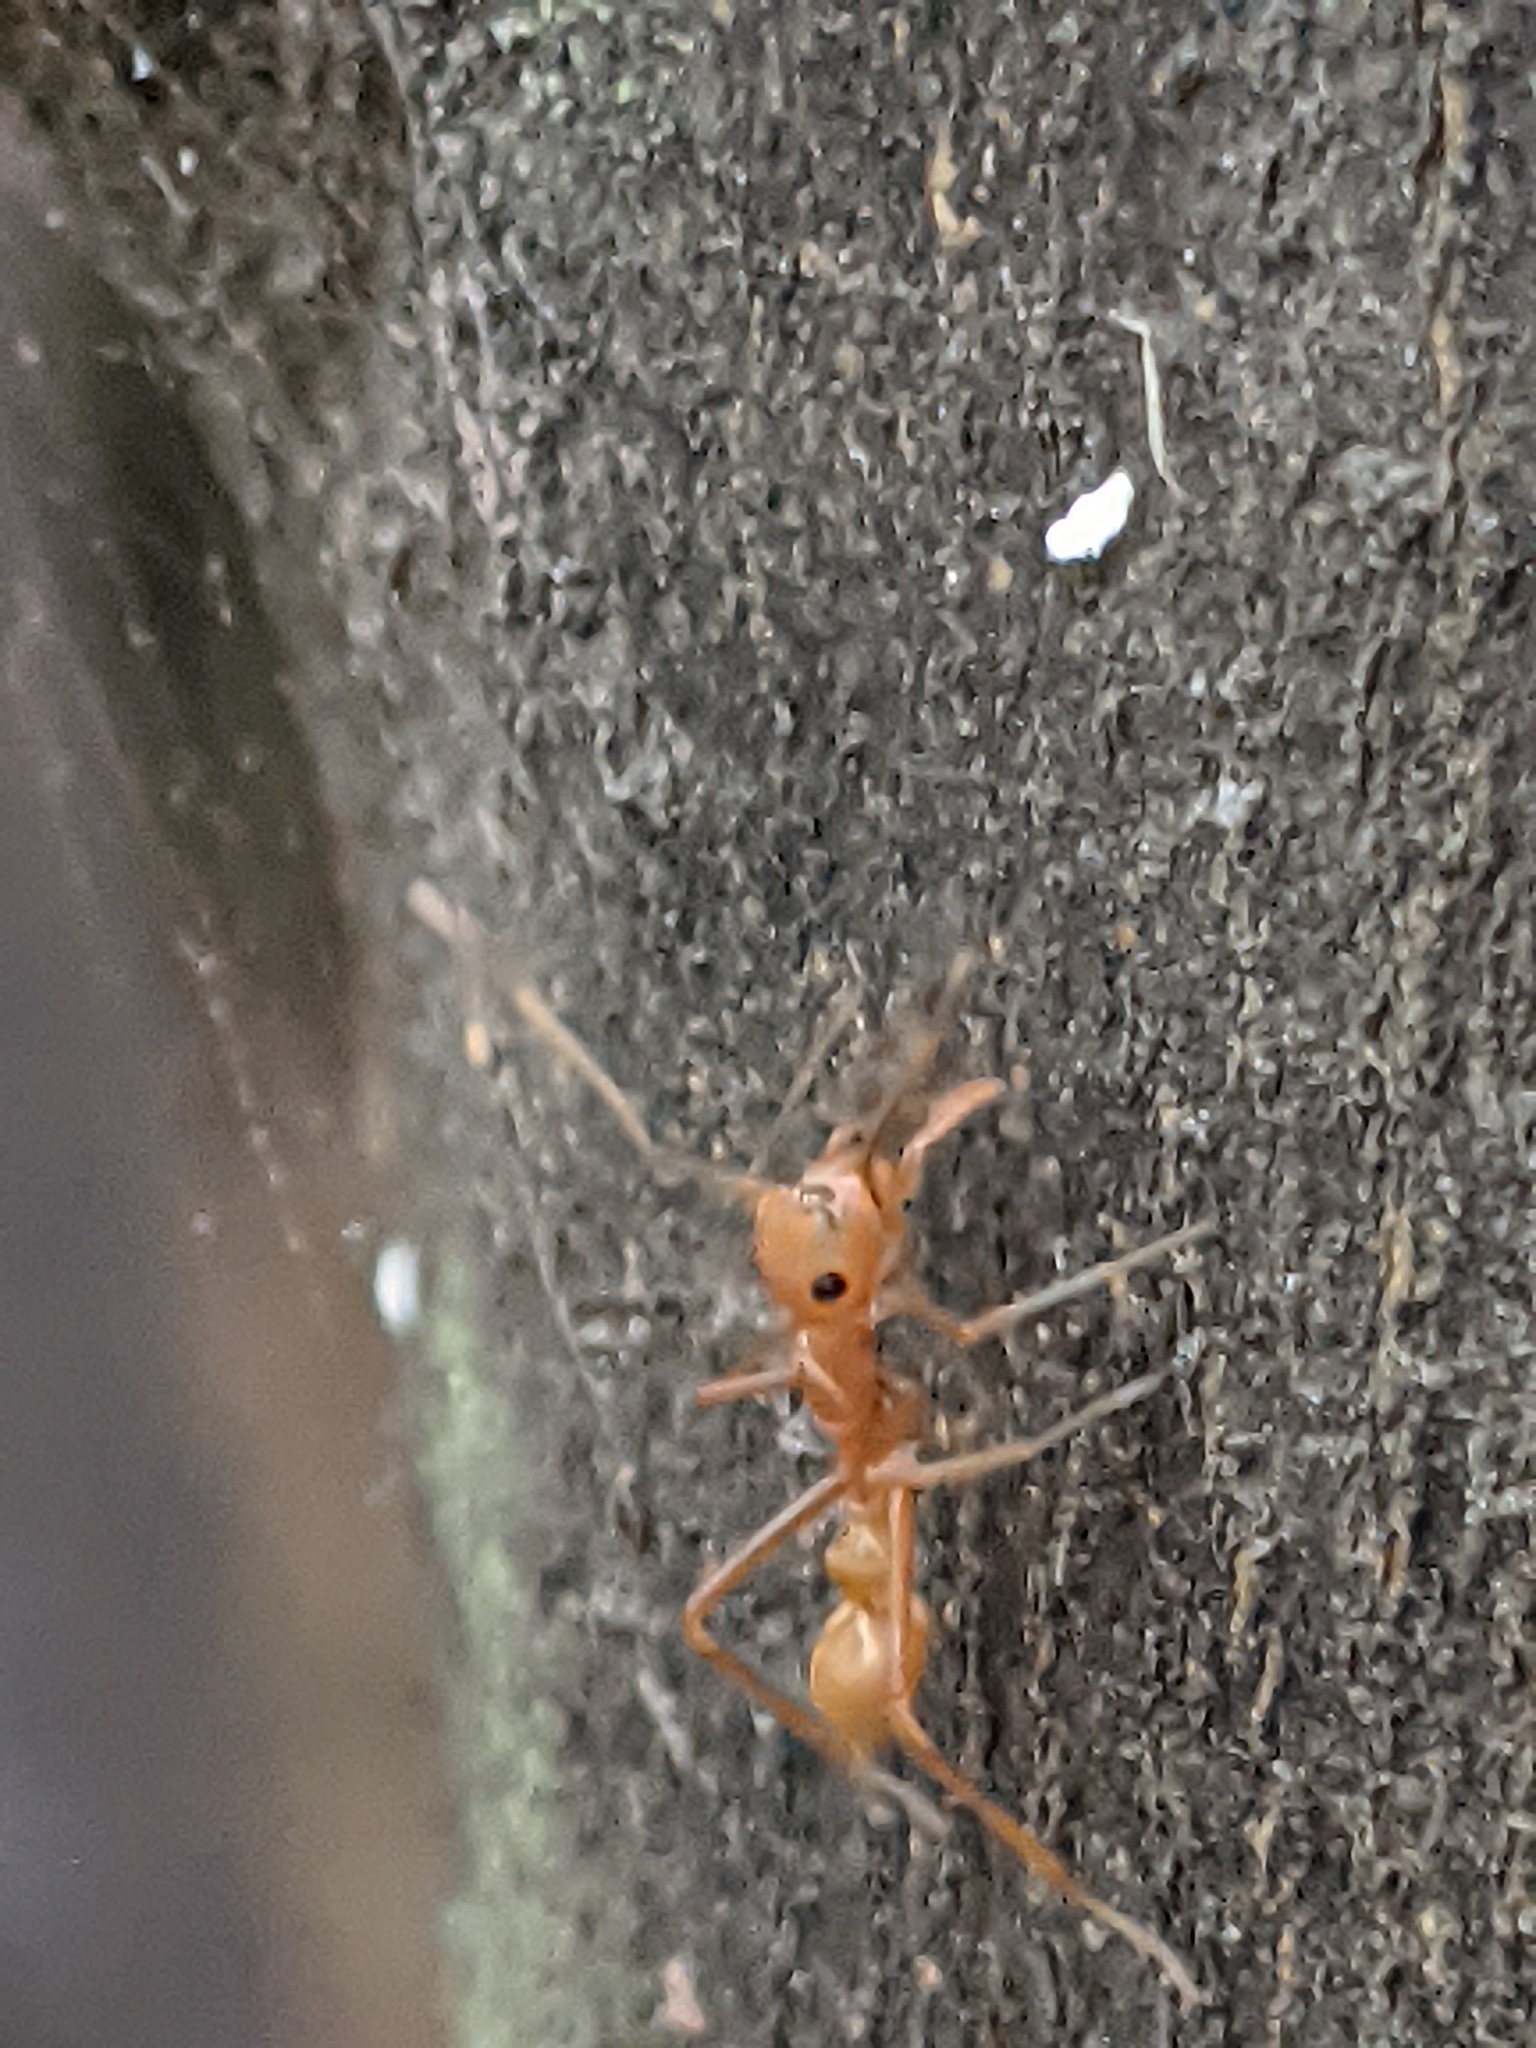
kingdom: Animalia
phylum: Arthropoda
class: Arachnida
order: Araneae
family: Salticidae
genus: Myrmaplata
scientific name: Myrmaplata plataleoides
